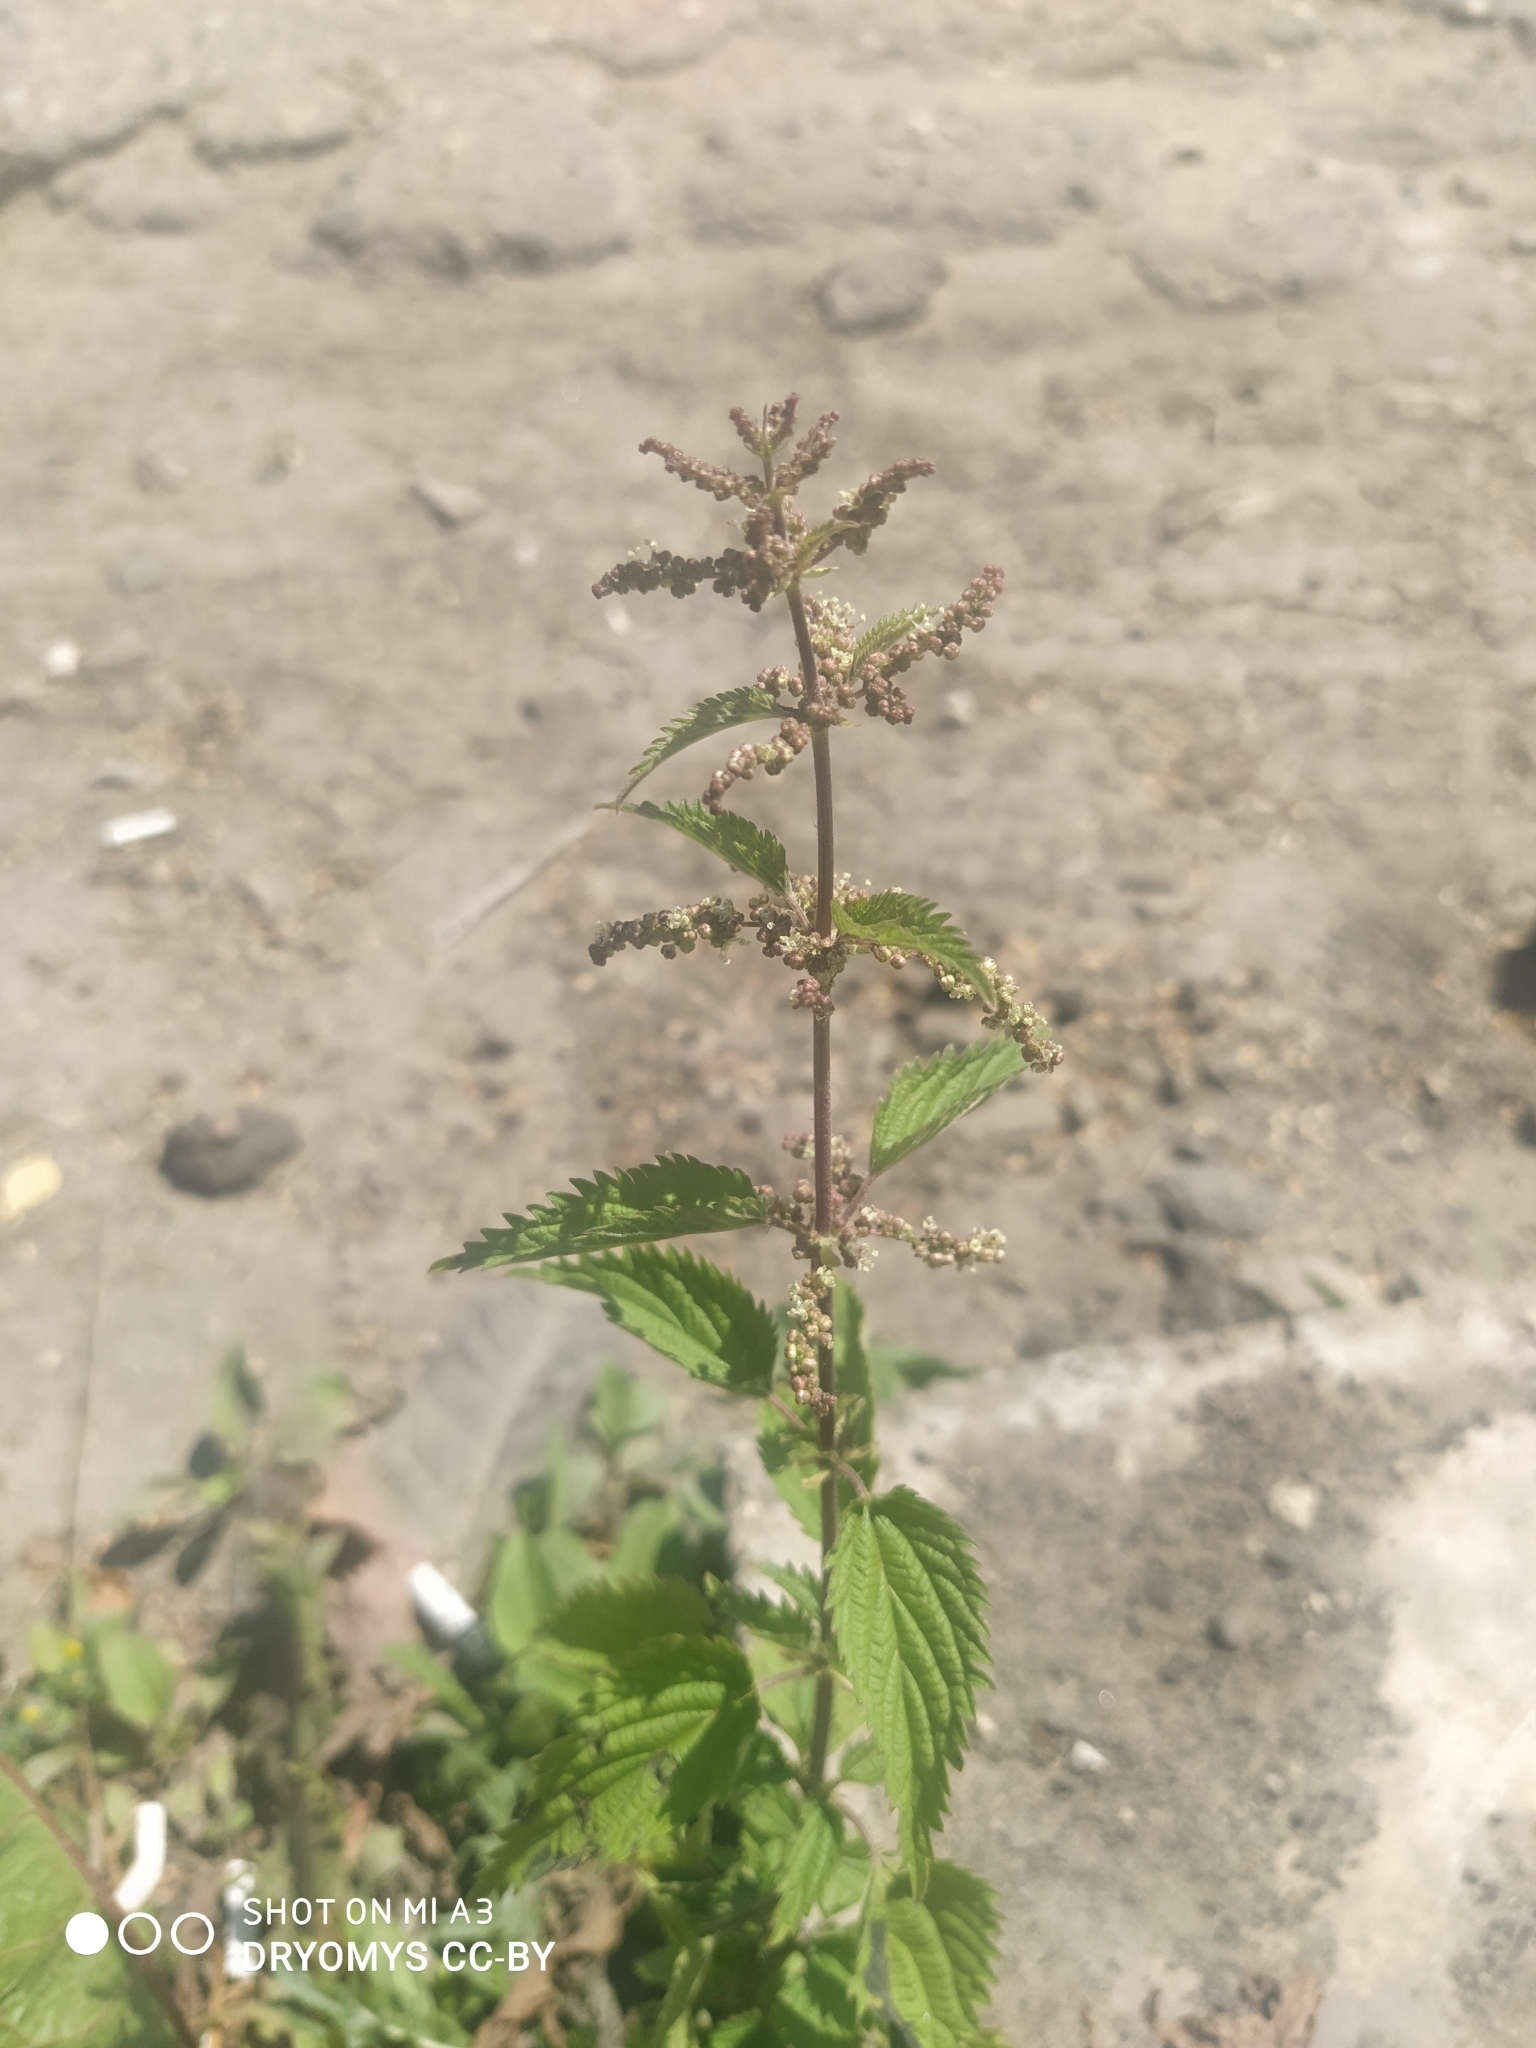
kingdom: Plantae
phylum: Tracheophyta
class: Magnoliopsida
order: Rosales
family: Urticaceae
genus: Urtica
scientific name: Urtica dioica
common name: Common nettle
